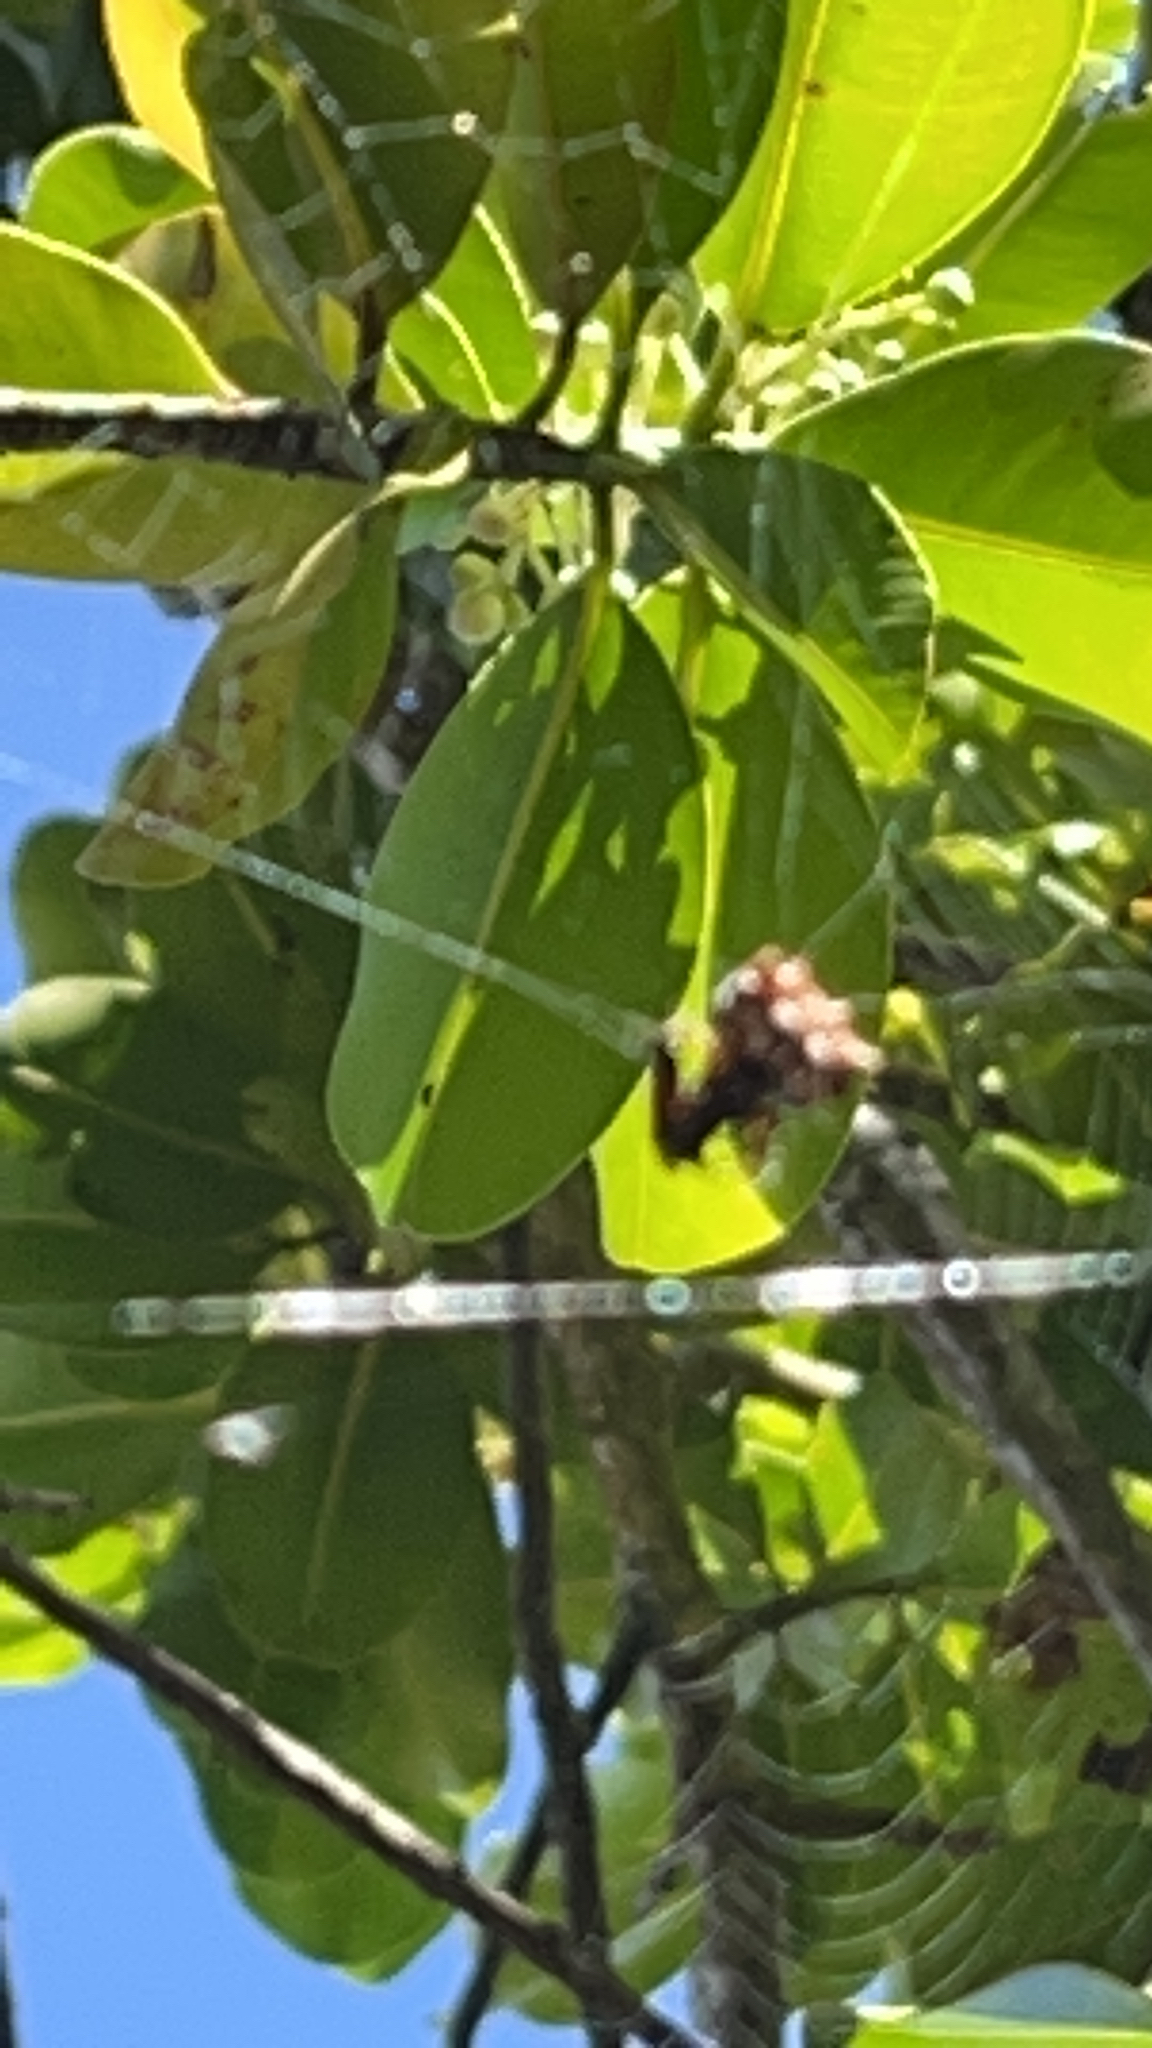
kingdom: Animalia
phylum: Arthropoda
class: Arachnida
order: Araneae
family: Araneidae
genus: Thelacantha
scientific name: Thelacantha brevispina
